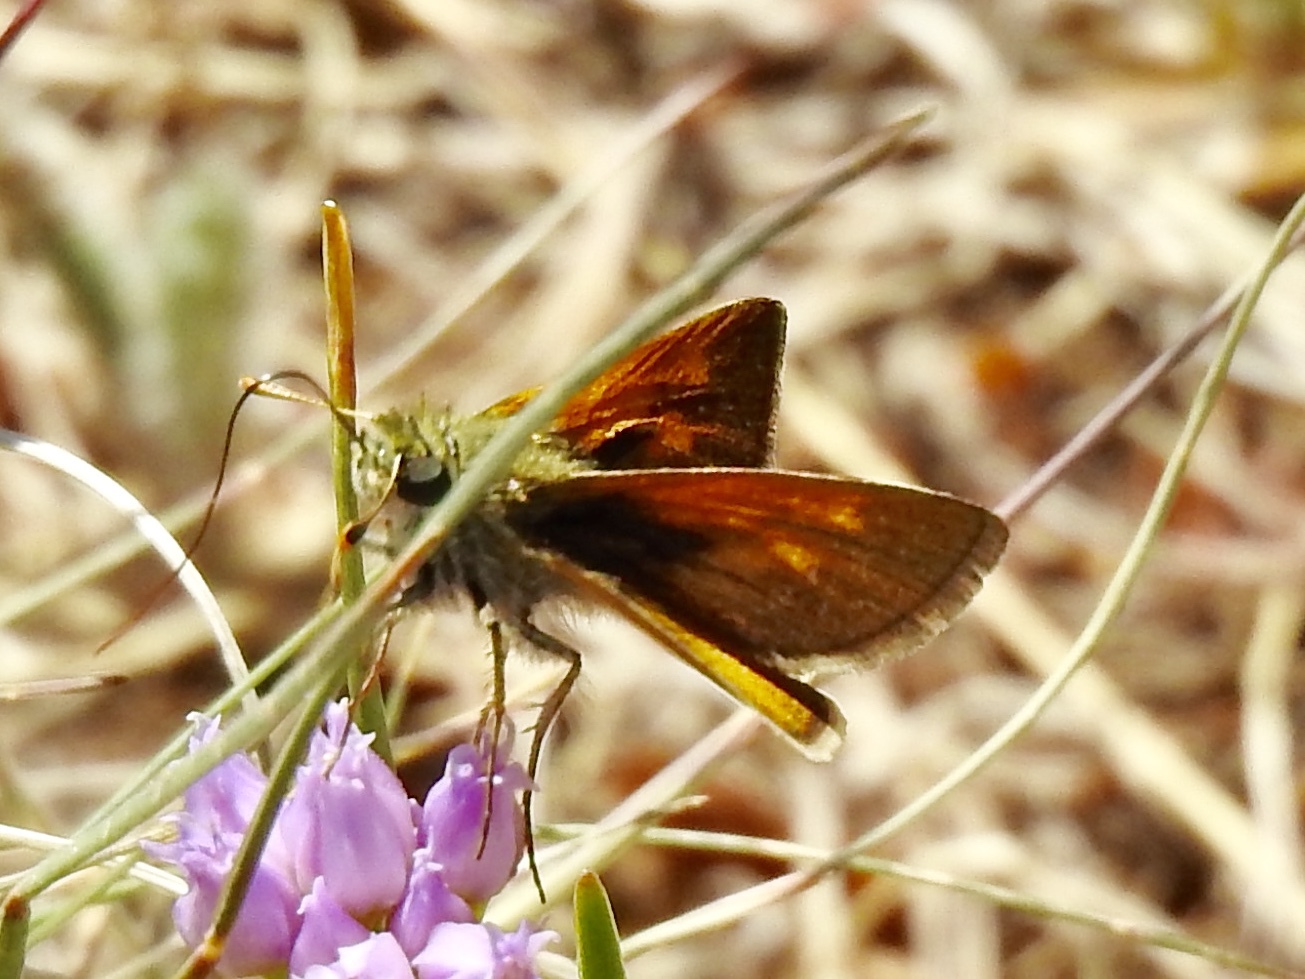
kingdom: Animalia
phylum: Arthropoda
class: Insecta
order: Lepidoptera
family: Hesperiidae
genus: Polites
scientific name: Polites themistocles
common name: Tawny-edged skipper
